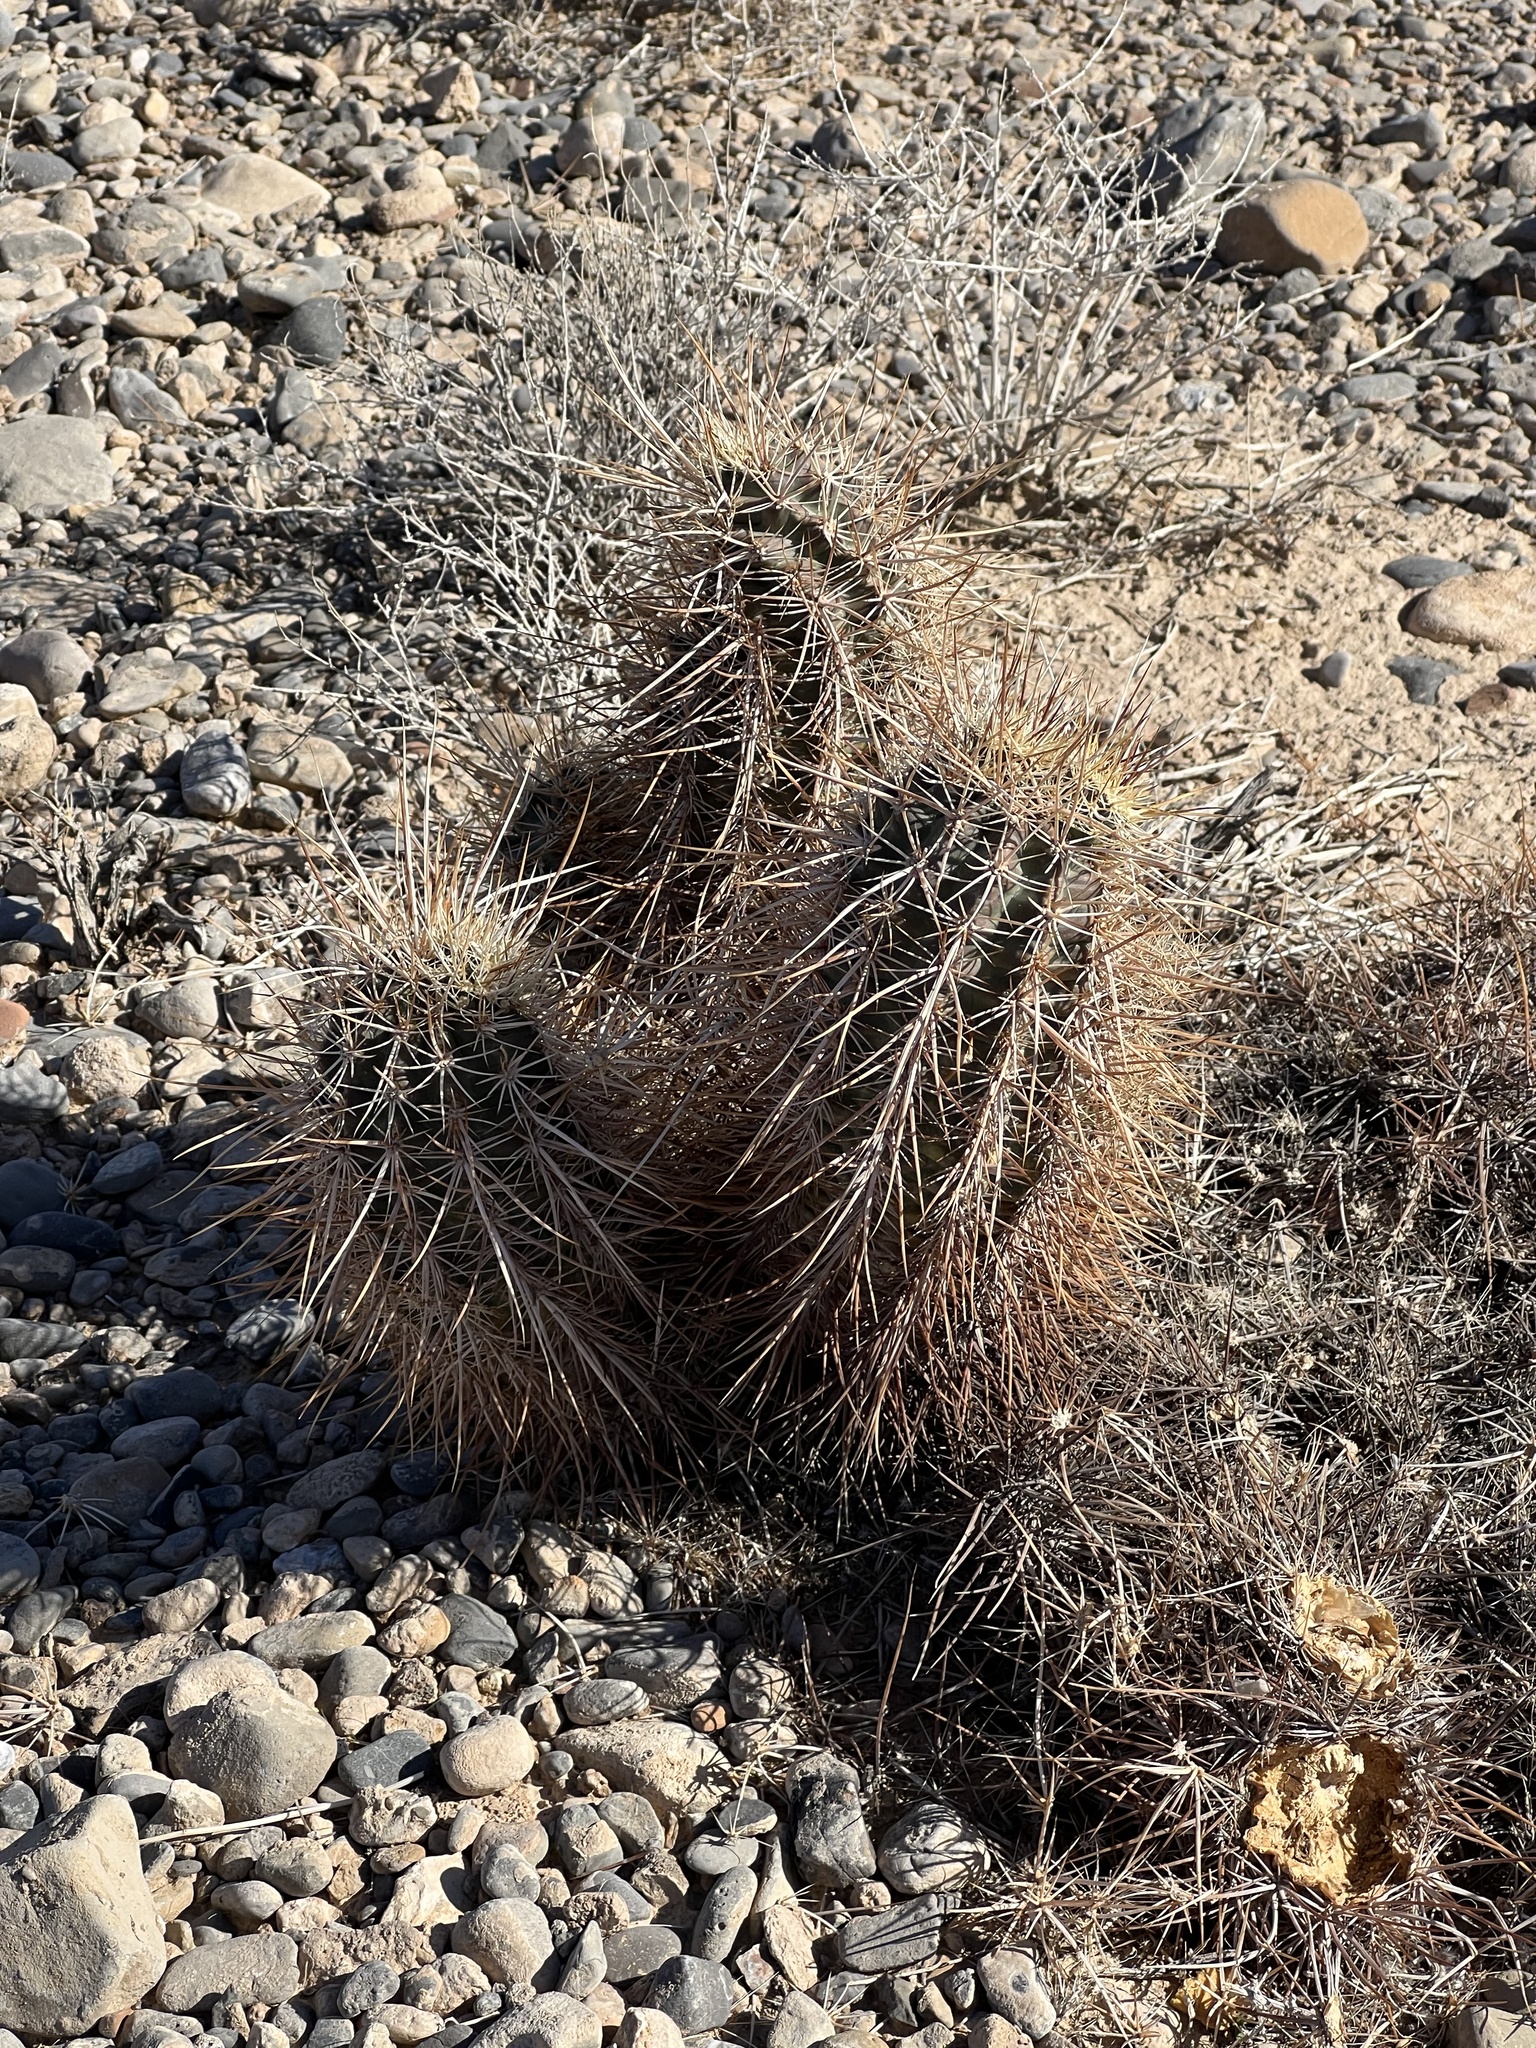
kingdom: Plantae
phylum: Tracheophyta
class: Magnoliopsida
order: Caryophyllales
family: Cactaceae
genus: Echinocereus
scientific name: Echinocereus engelmannii
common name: Engelmann's hedgehog cactus
